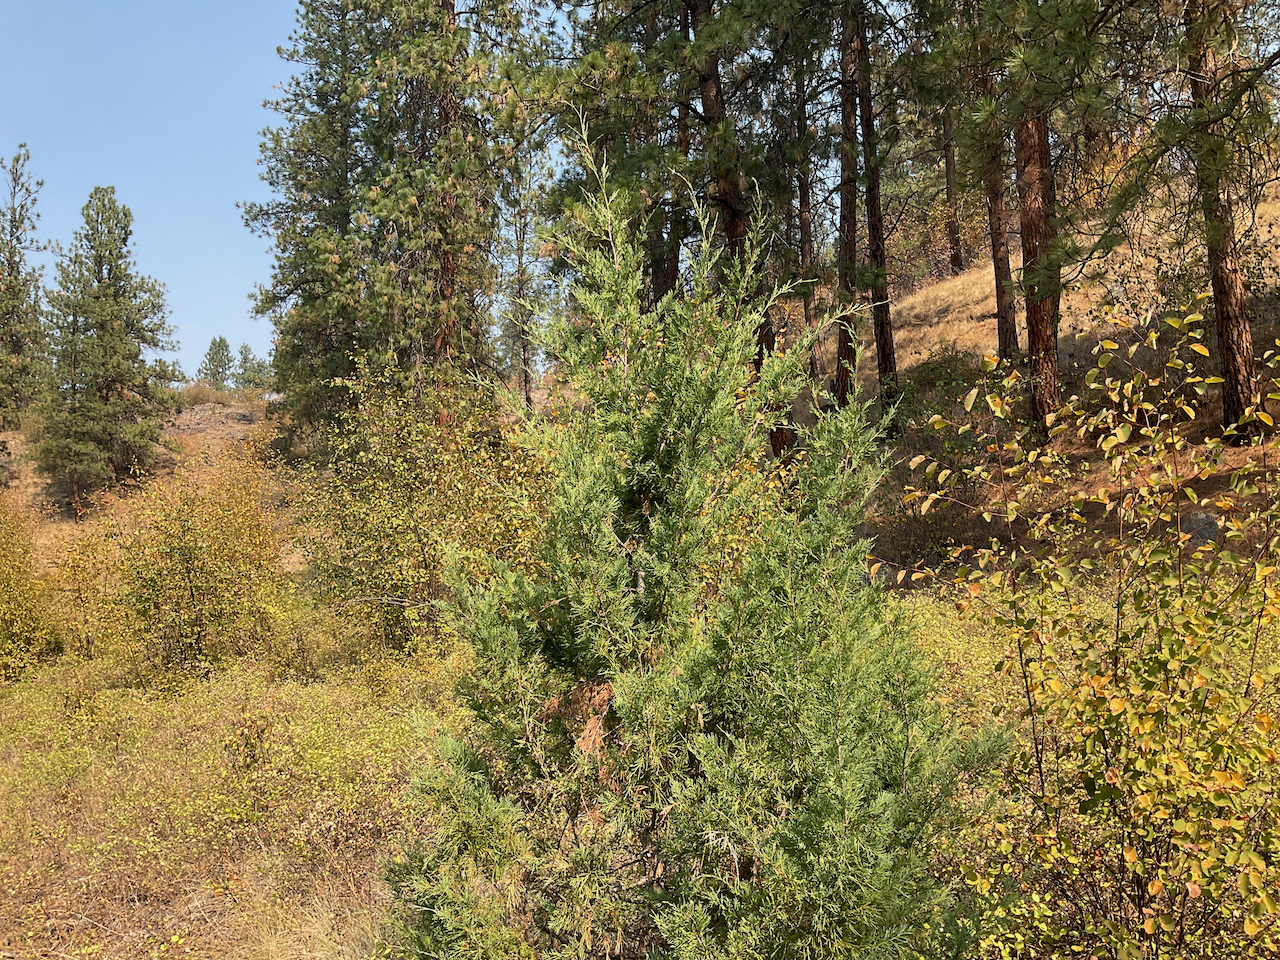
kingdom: Plantae
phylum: Tracheophyta
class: Pinopsida
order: Pinales
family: Cupressaceae
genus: Juniperus
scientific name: Juniperus scopulorum
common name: Rocky mountain juniper
